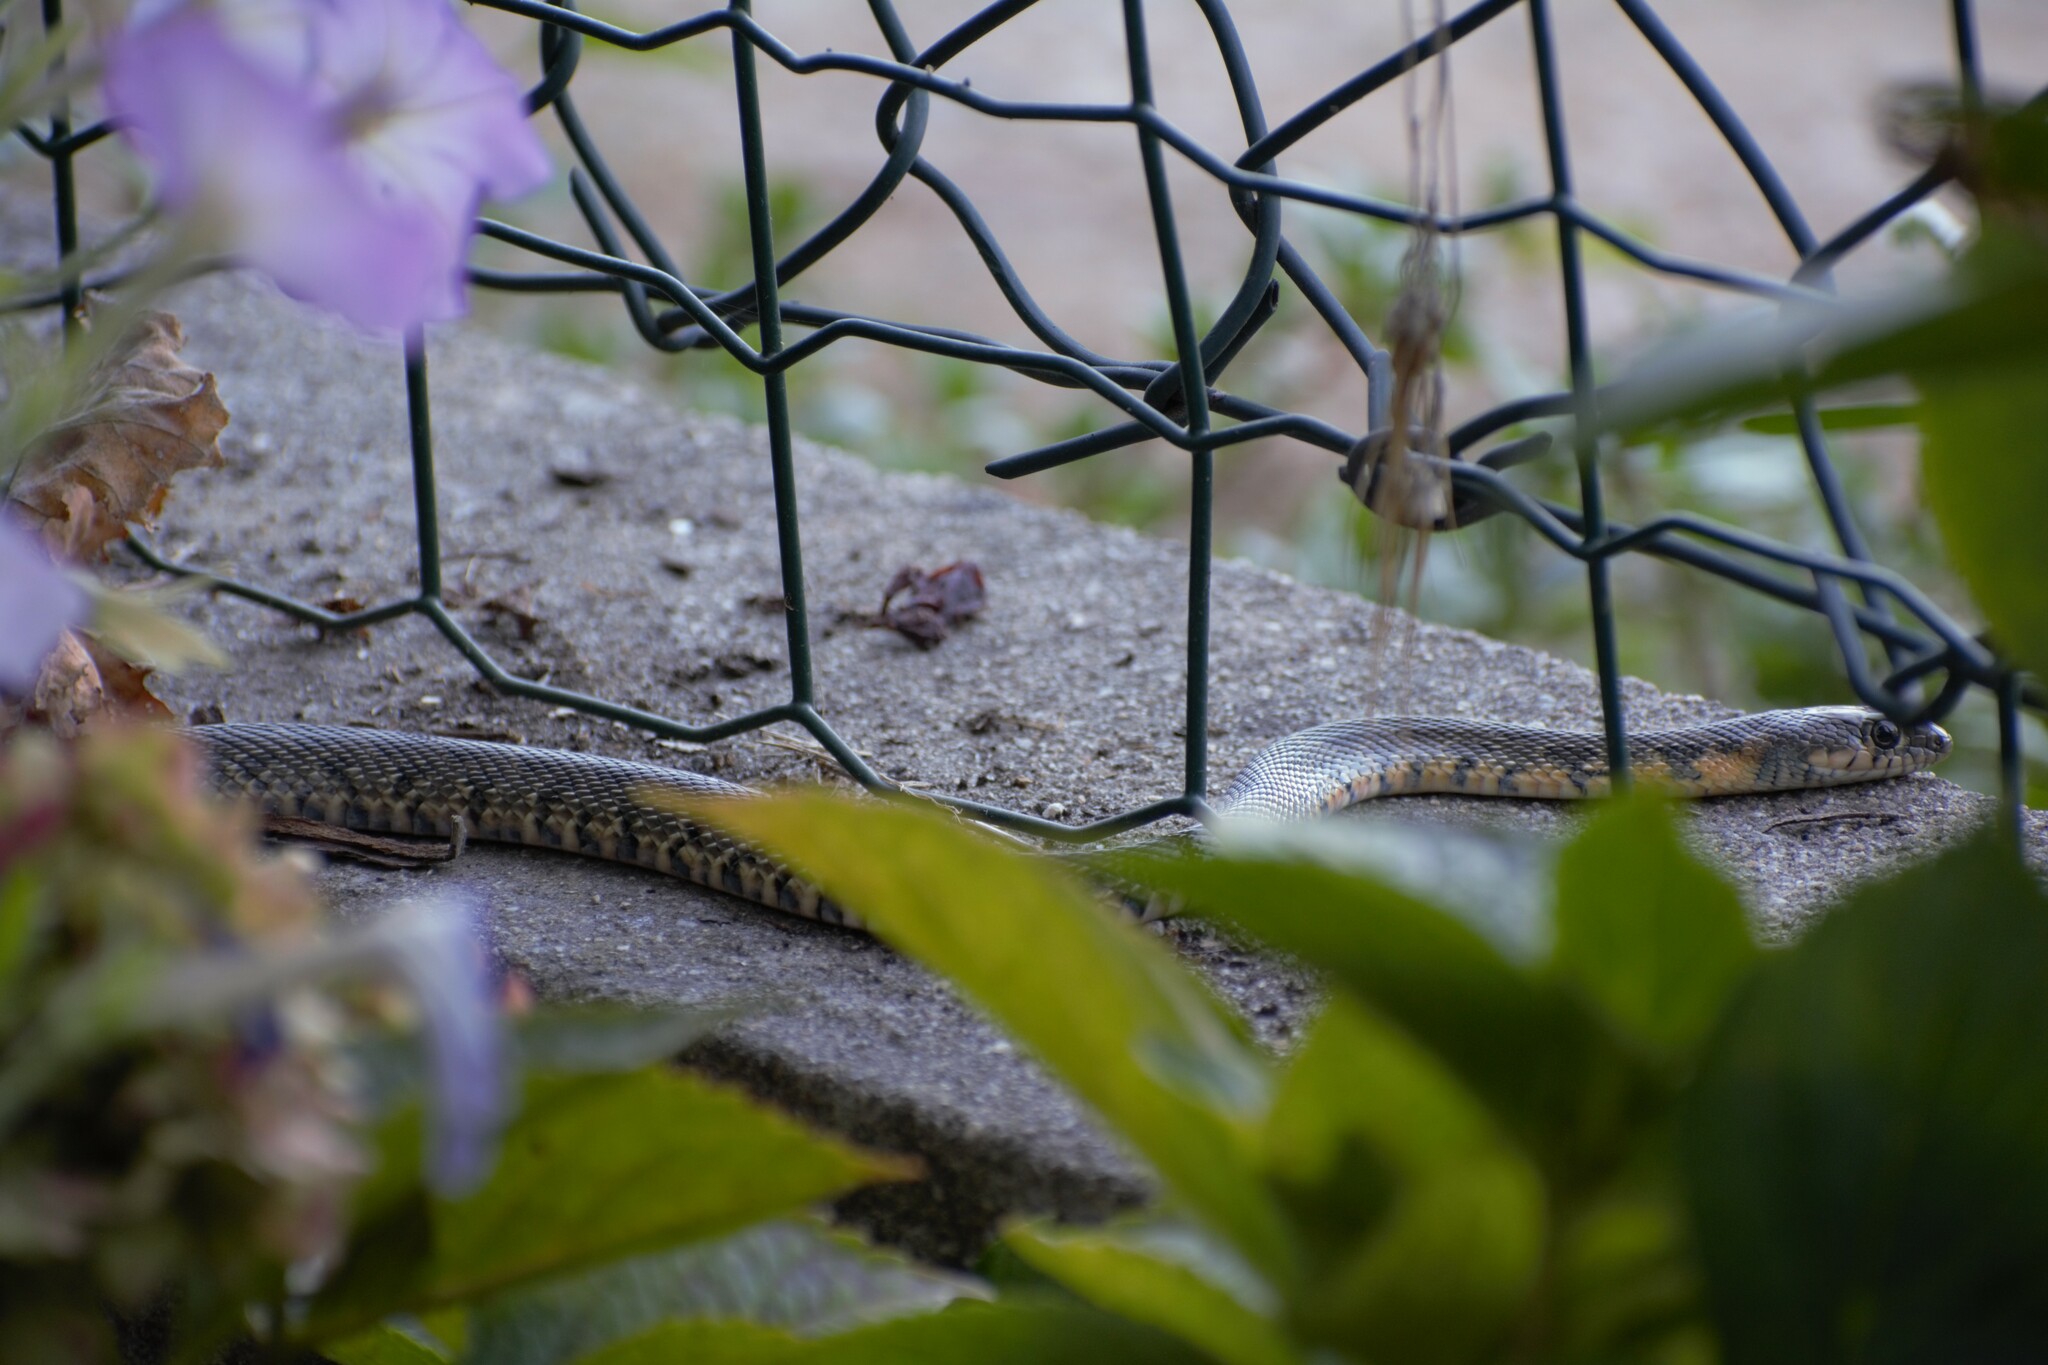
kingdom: Animalia
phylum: Chordata
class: Squamata
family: Colubridae
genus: Hemorrhois
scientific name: Hemorrhois hippocrepis
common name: Horseshoe whip snake
